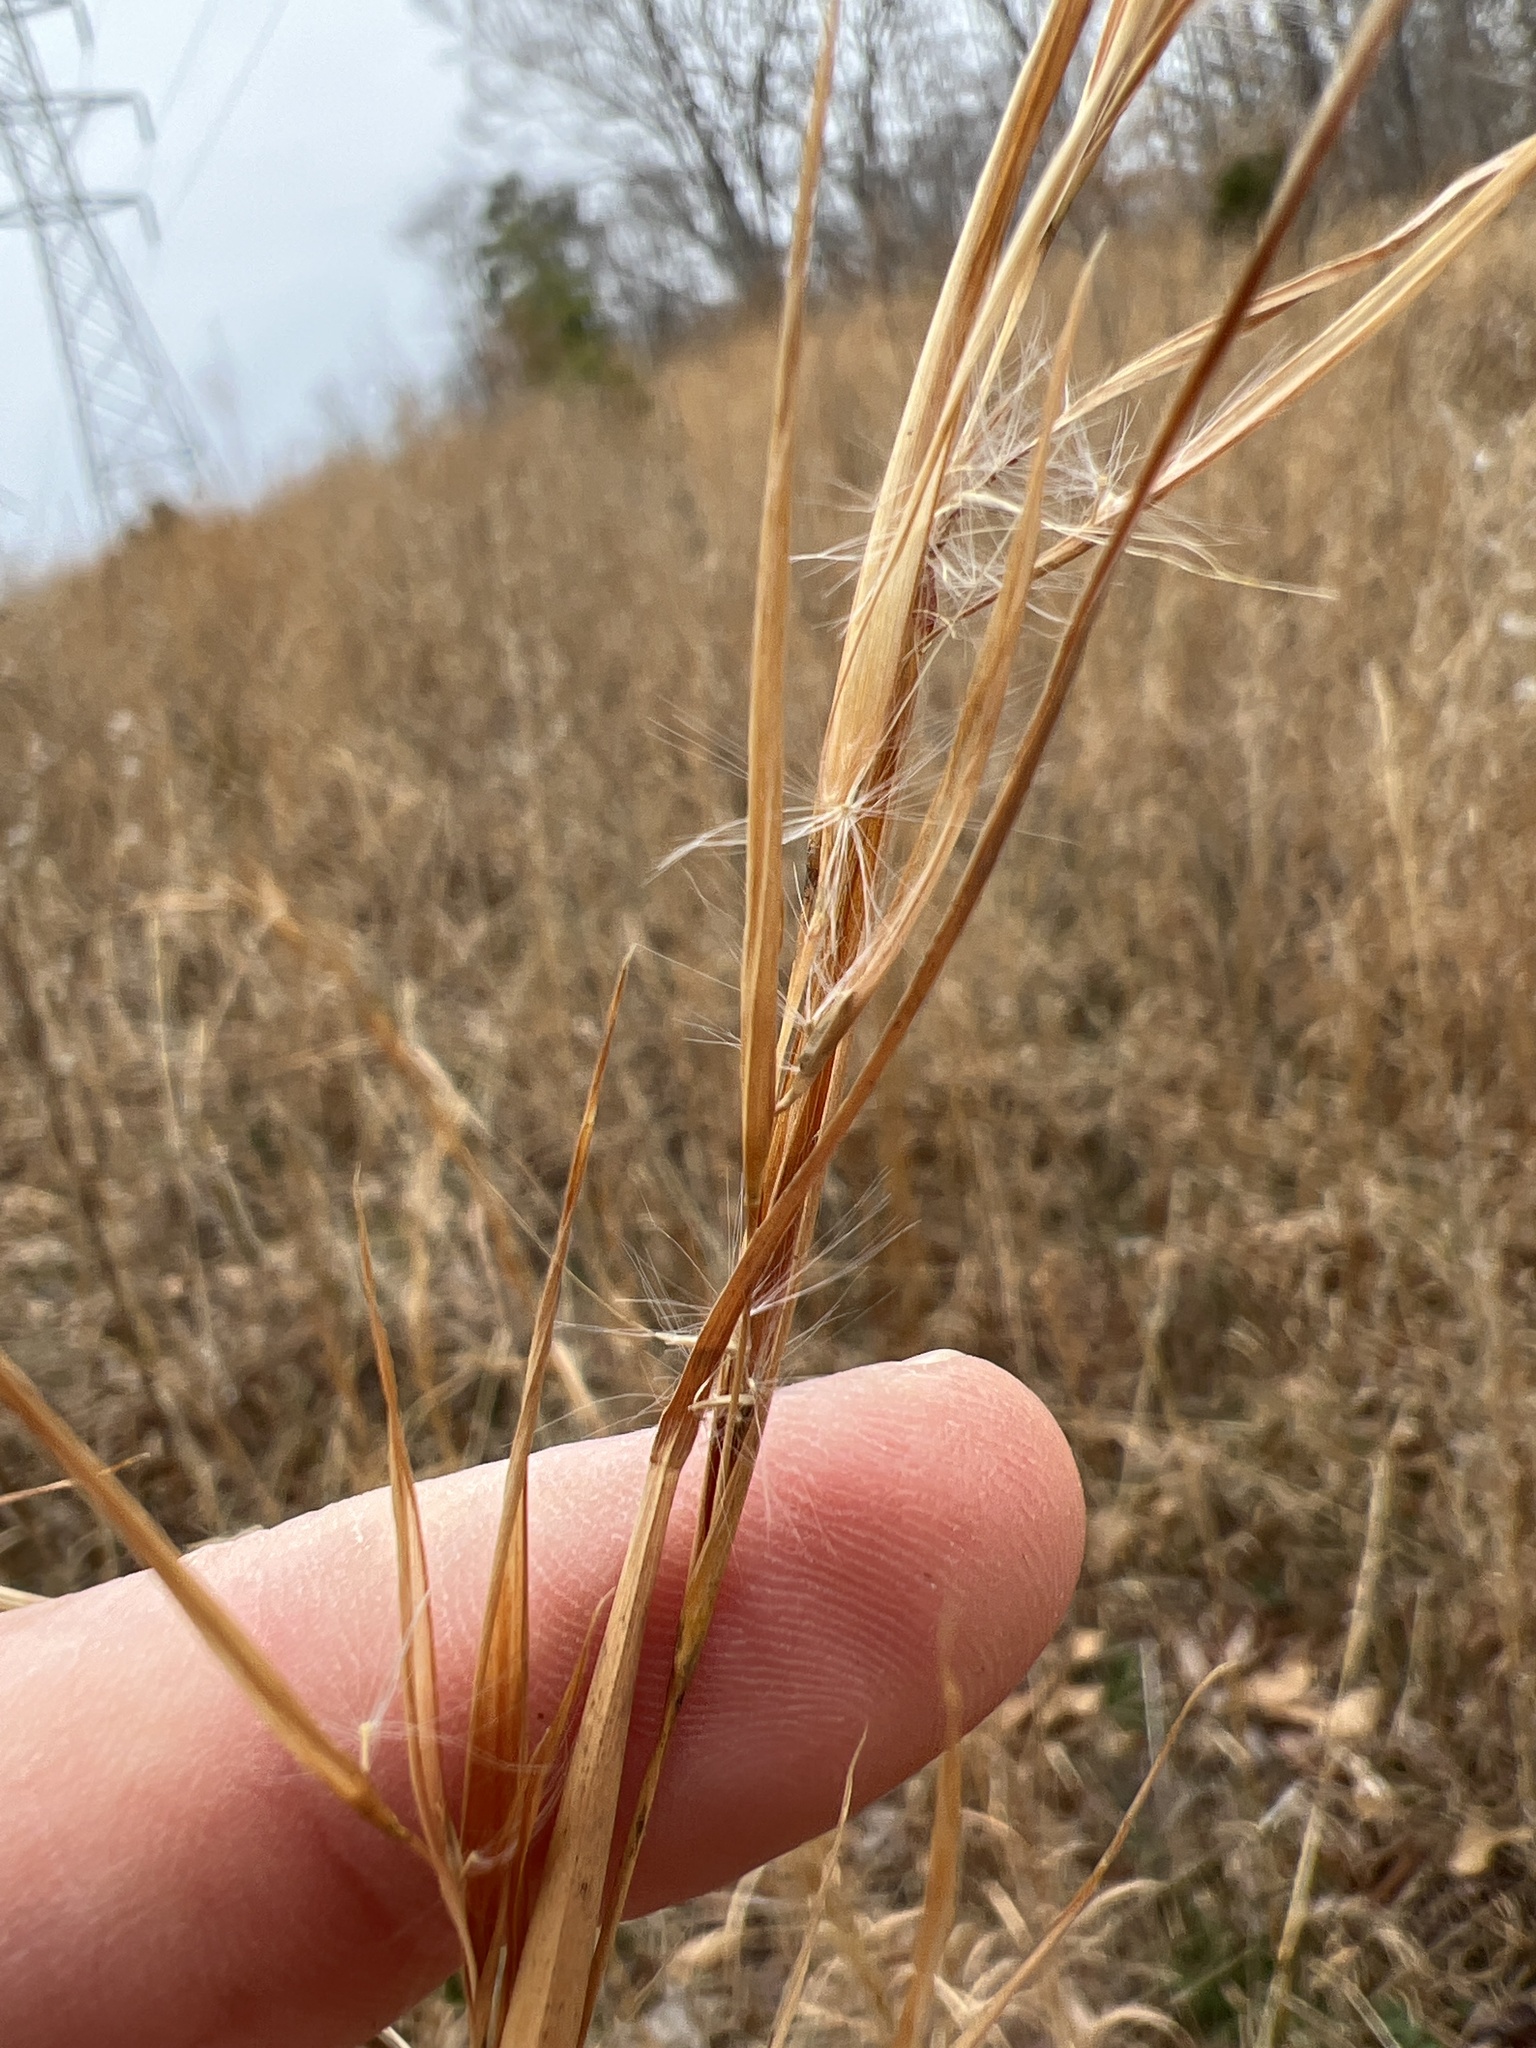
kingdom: Plantae
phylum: Tracheophyta
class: Liliopsida
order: Poales
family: Poaceae
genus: Andropogon
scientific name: Andropogon virginicus
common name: Broomsedge bluestem
